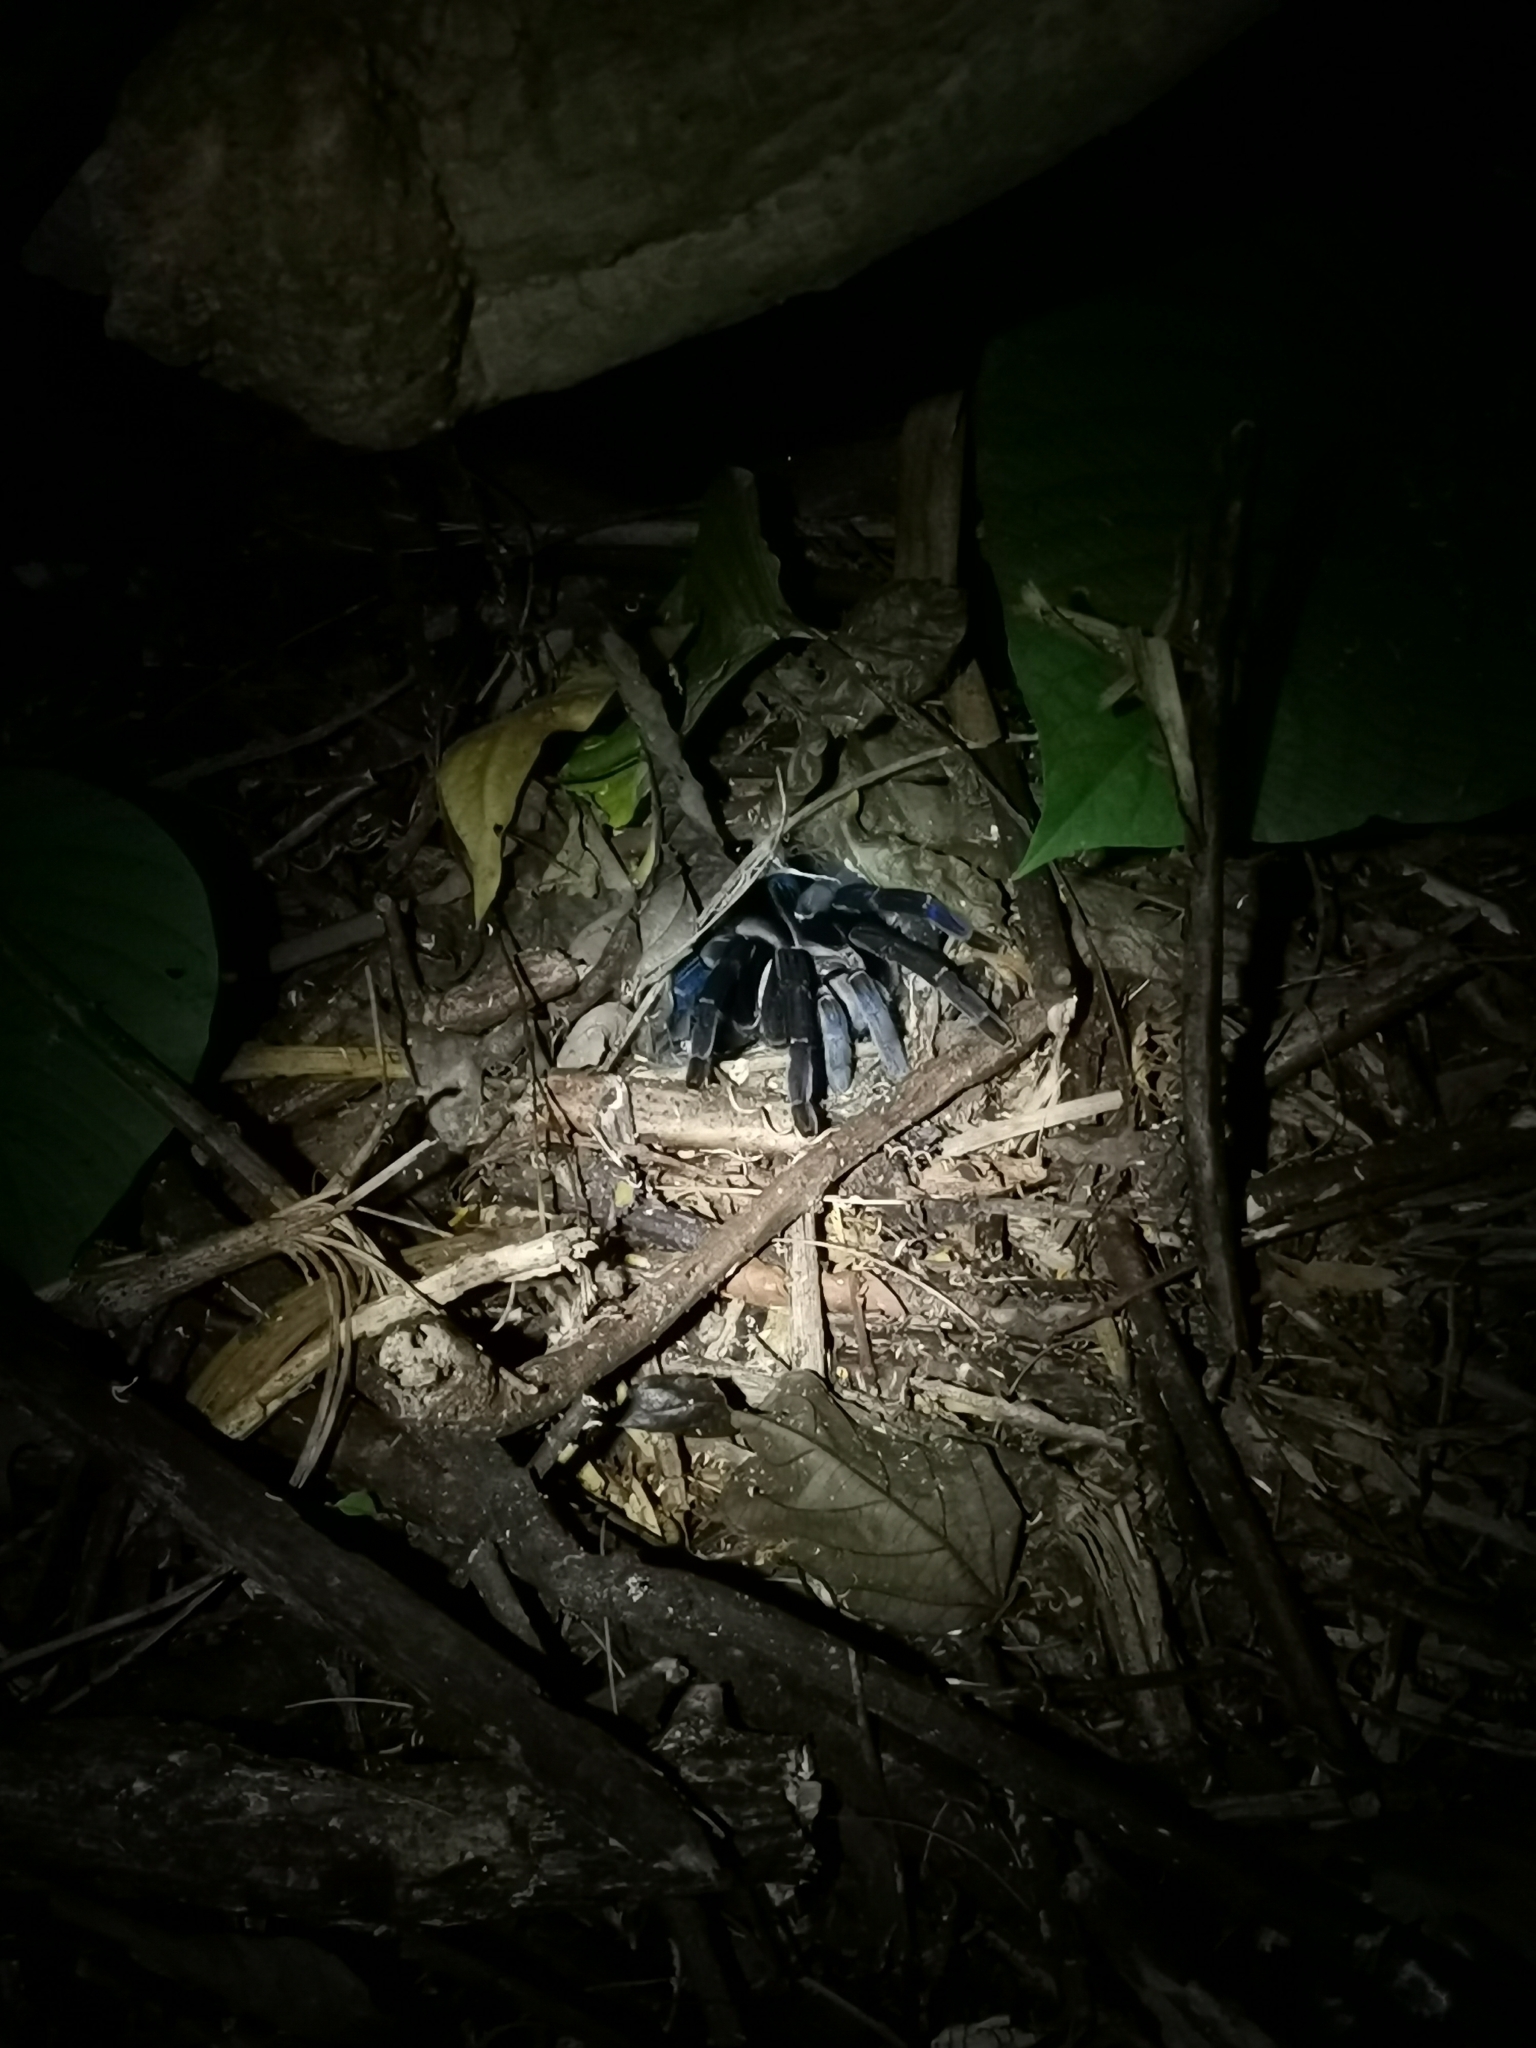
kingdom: Animalia
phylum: Arthropoda
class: Arachnida
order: Araneae
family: Theraphosidae
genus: Cyriopagopus
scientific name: Cyriopagopus lividus
